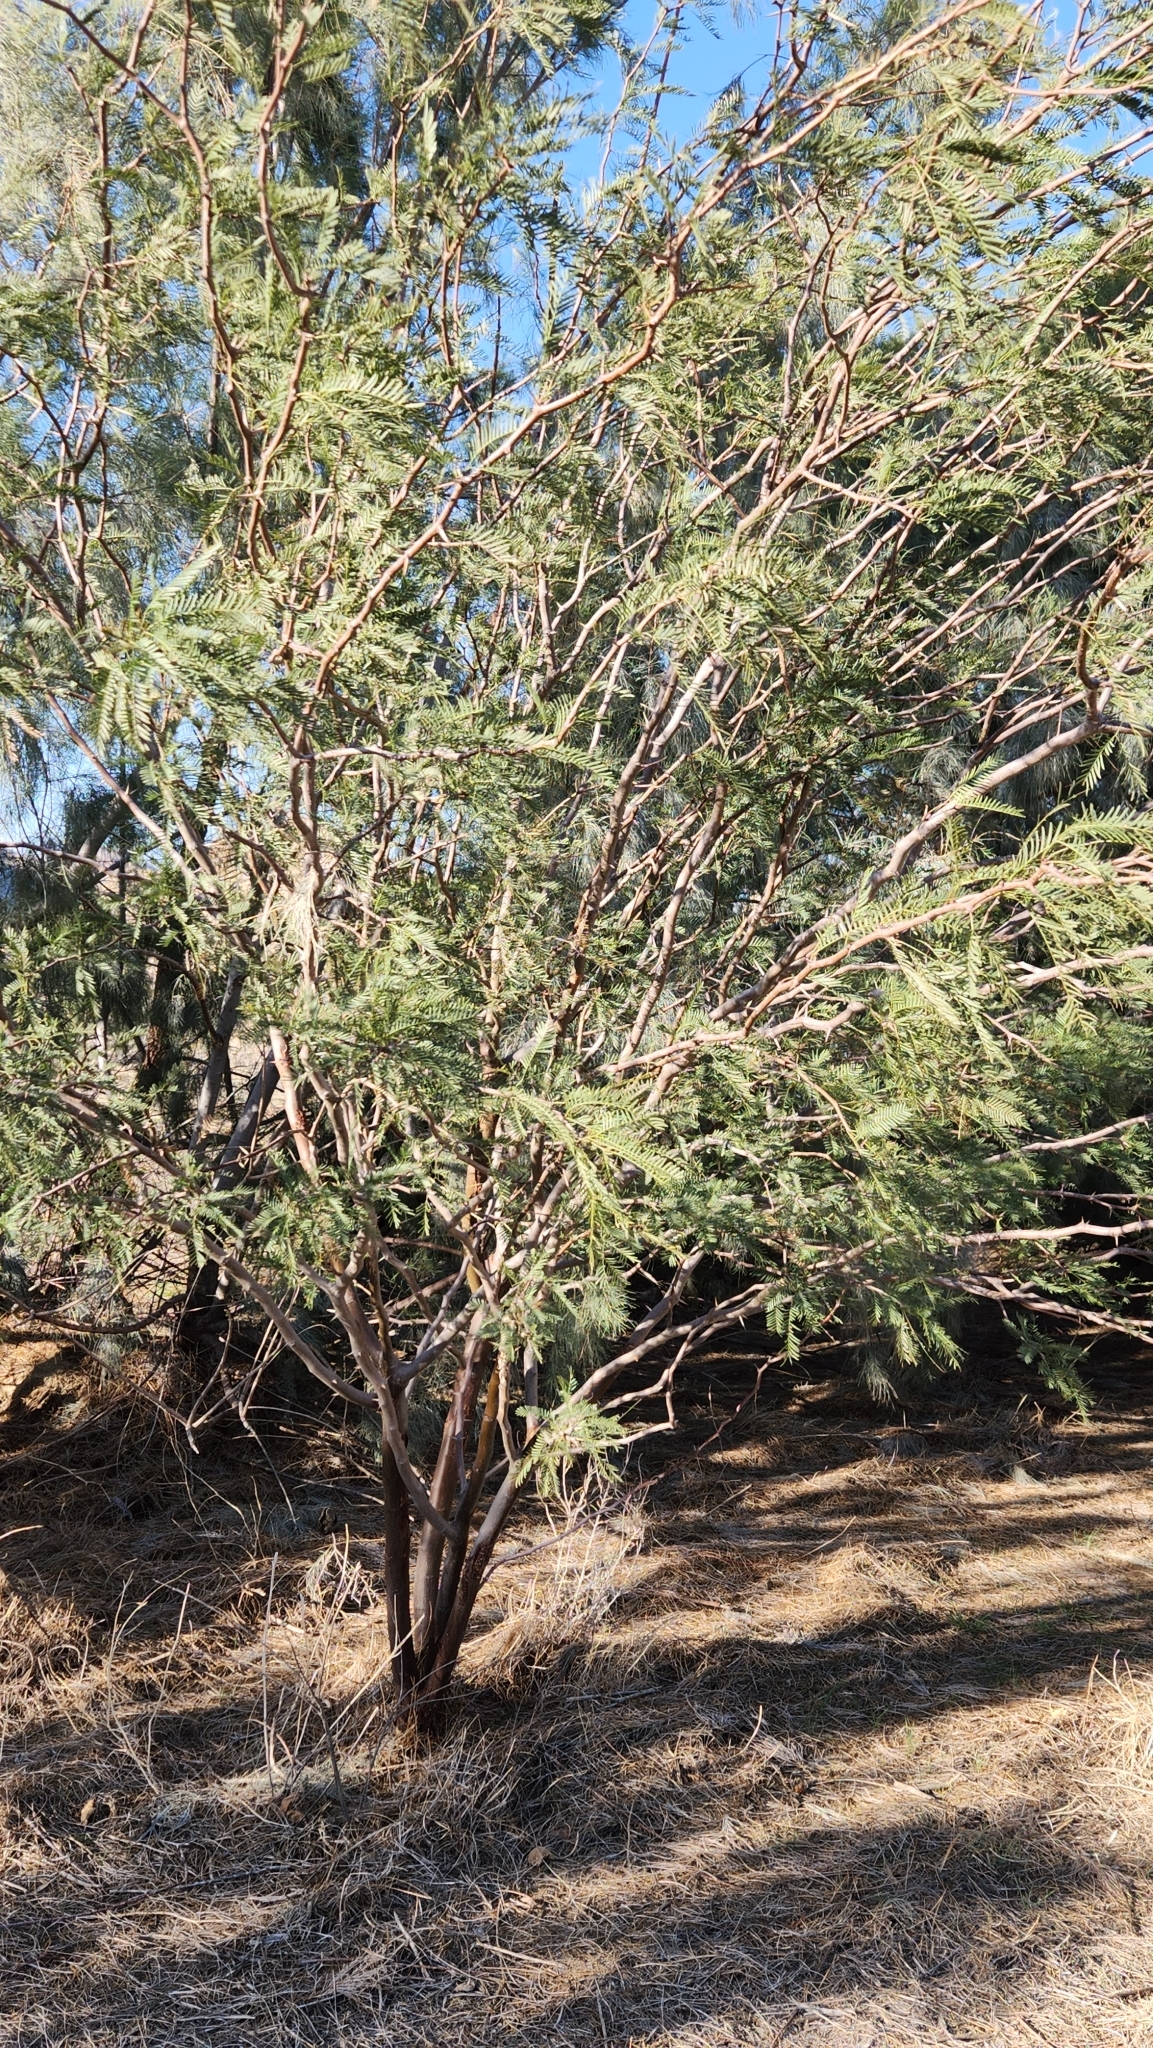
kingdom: Plantae
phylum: Tracheophyta
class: Magnoliopsida
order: Fabales
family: Fabaceae
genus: Prosopis
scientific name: Prosopis chilensis
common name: Chilean algarrobo
